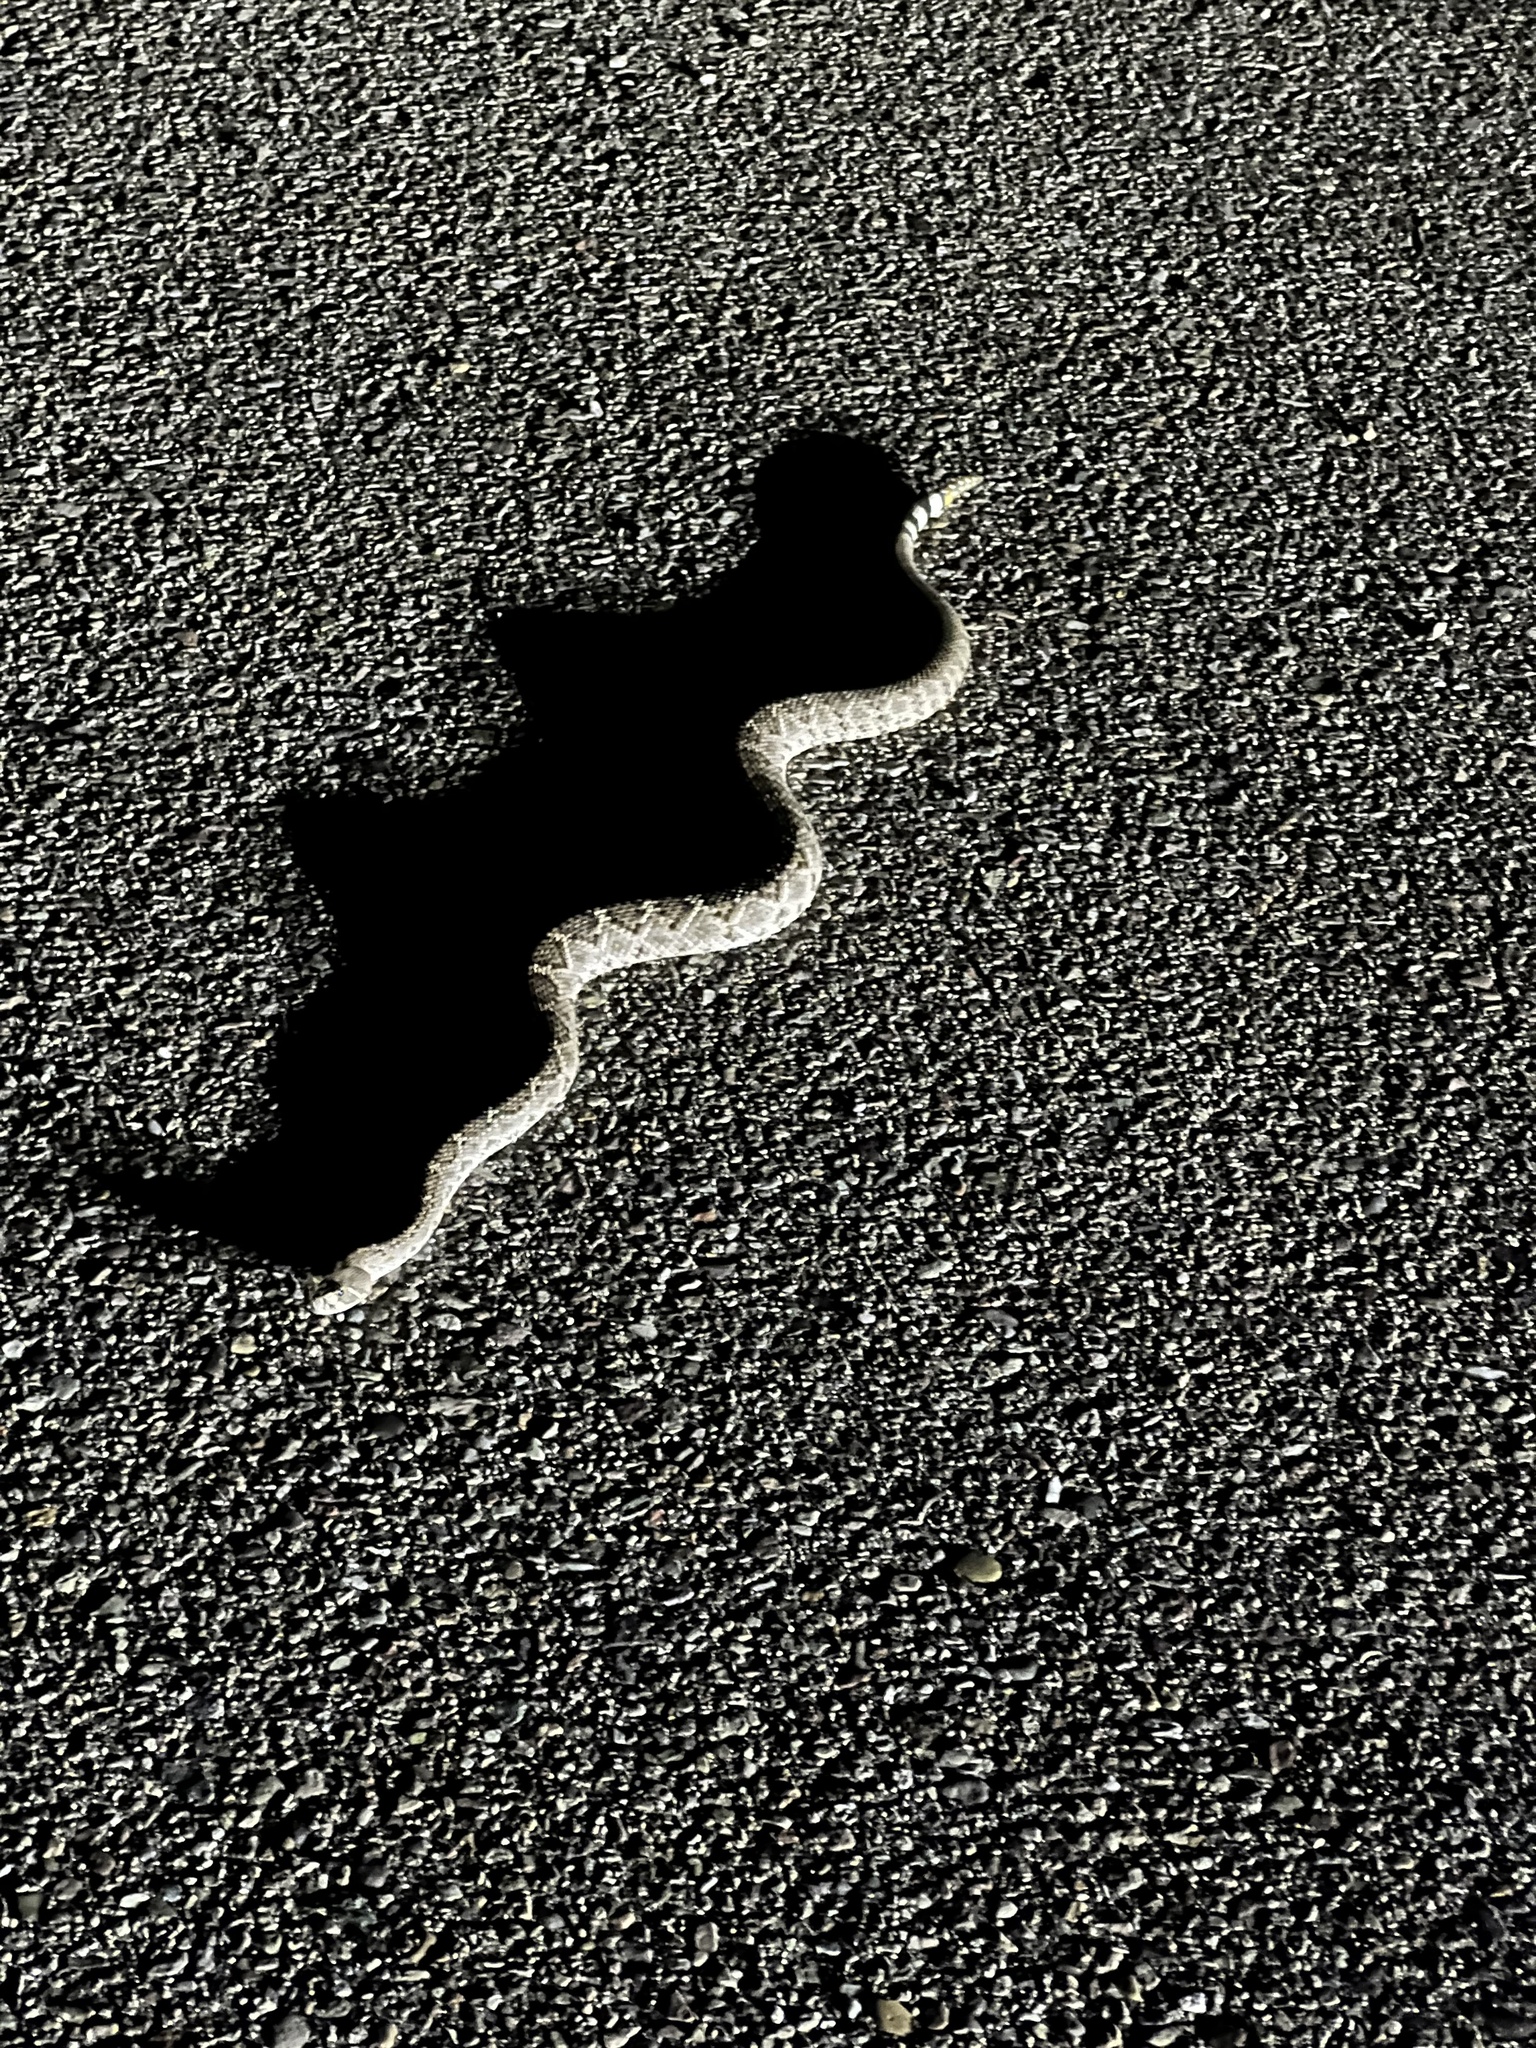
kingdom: Animalia
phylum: Chordata
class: Squamata
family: Viperidae
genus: Crotalus
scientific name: Crotalus atrox
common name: Western diamond-backed rattlesnake
